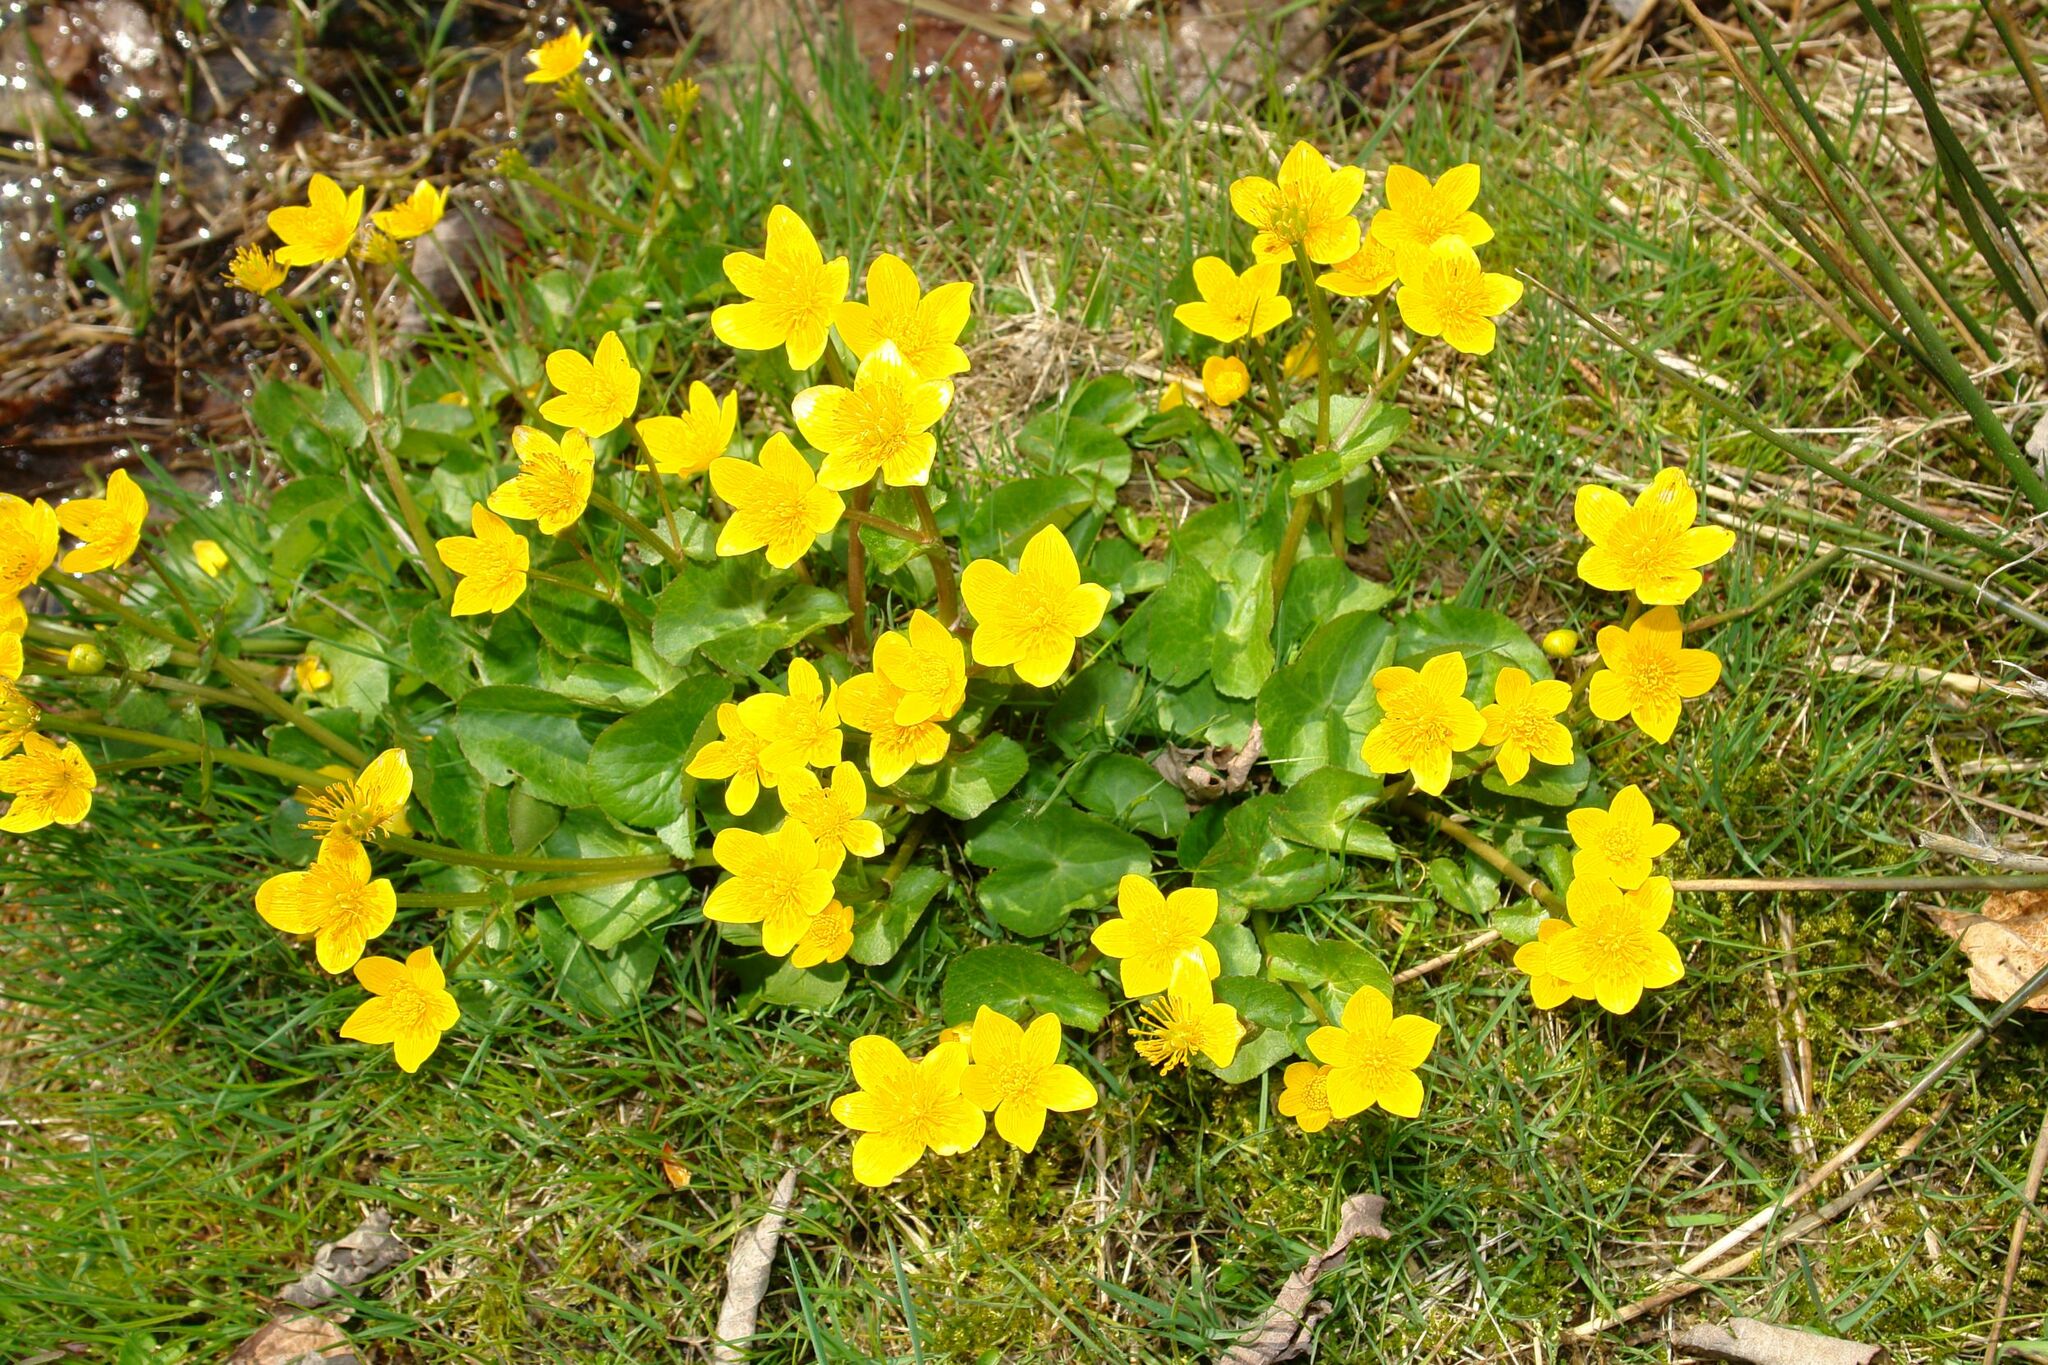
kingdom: Plantae
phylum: Tracheophyta
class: Magnoliopsida
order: Ranunculales
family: Ranunculaceae
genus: Caltha
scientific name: Caltha palustris
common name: Marsh marigold
